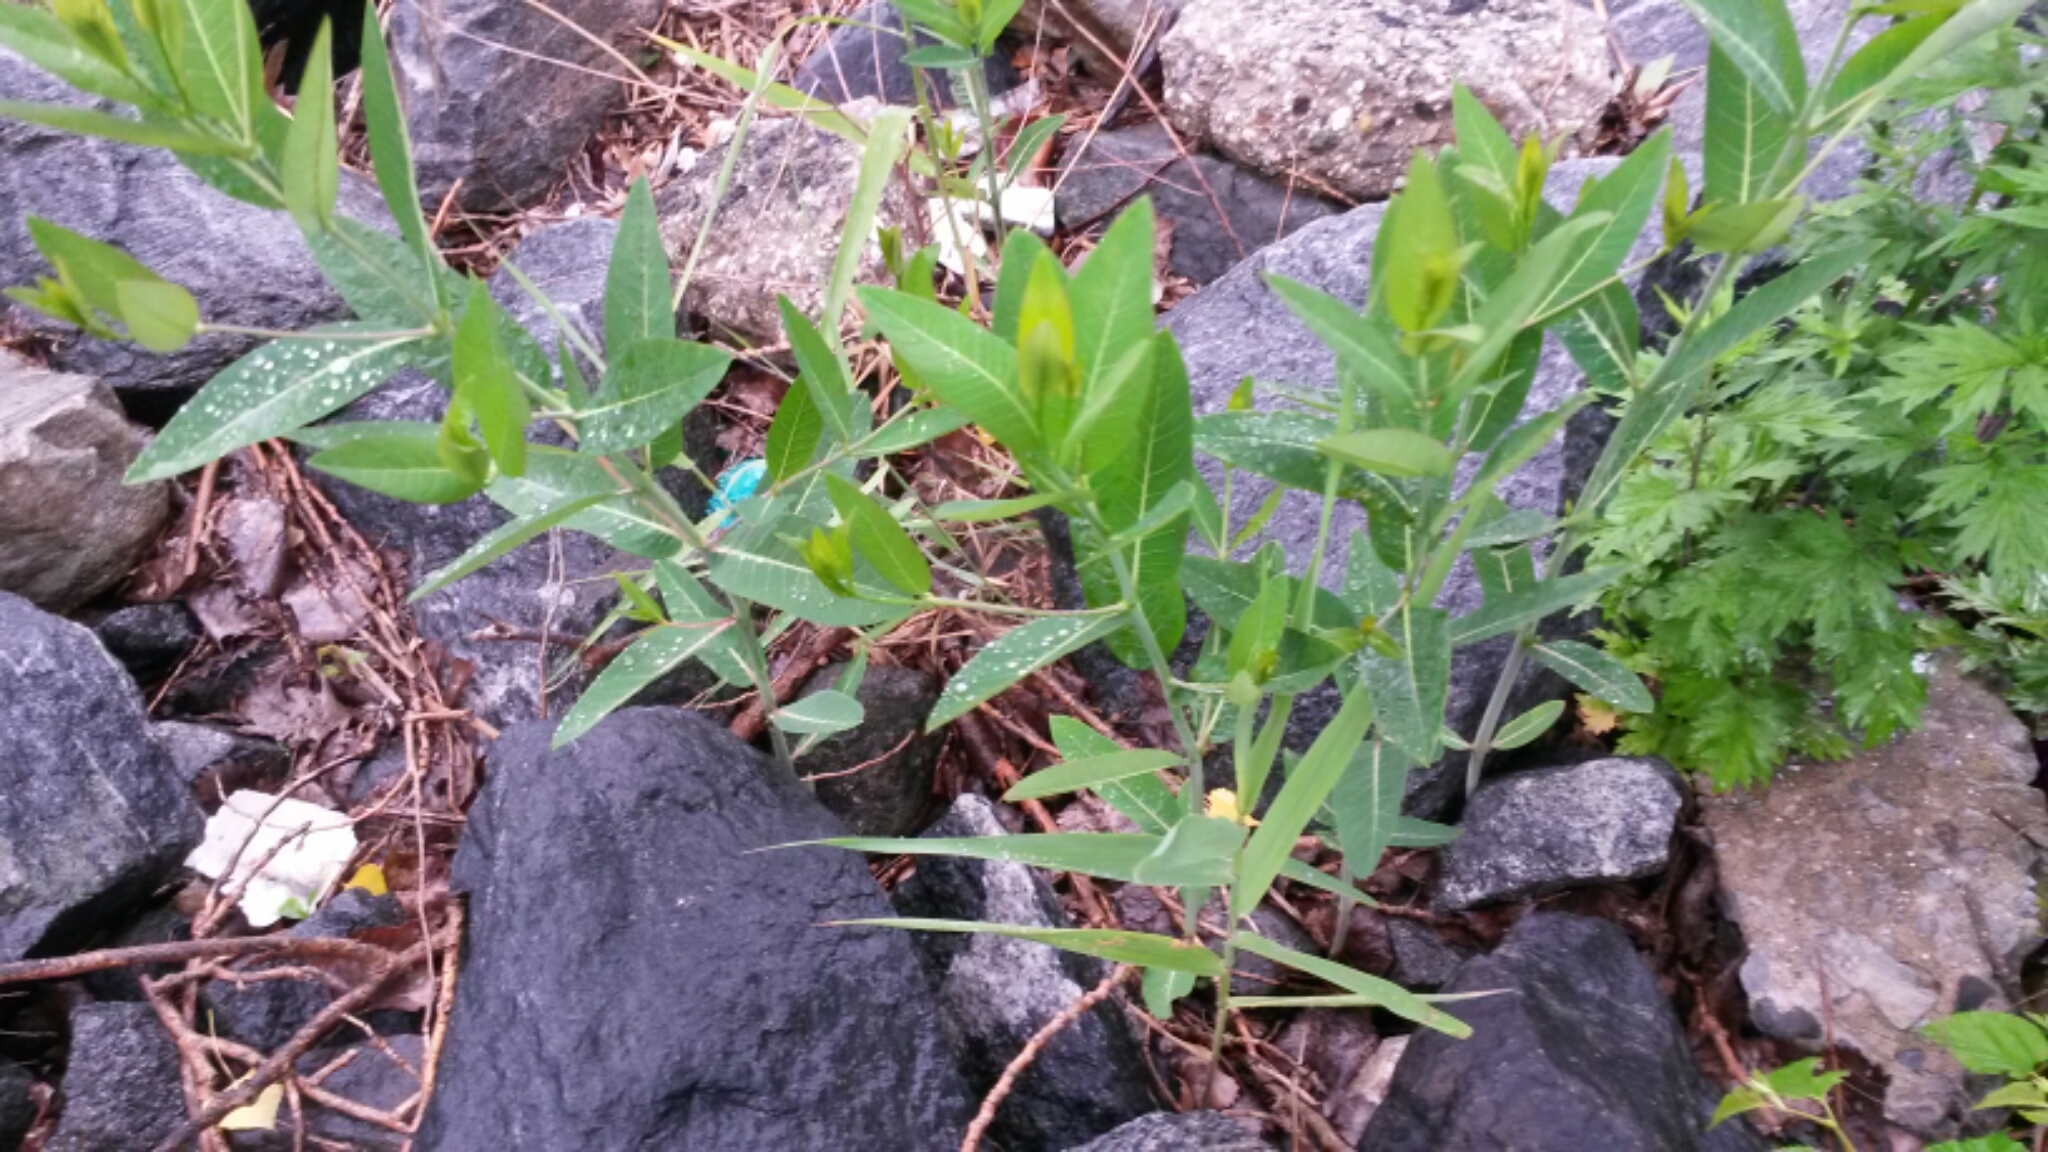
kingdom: Plantae
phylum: Tracheophyta
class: Magnoliopsida
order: Gentianales
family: Apocynaceae
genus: Apocynum
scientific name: Apocynum cannabinum
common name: Hemp dogbane
